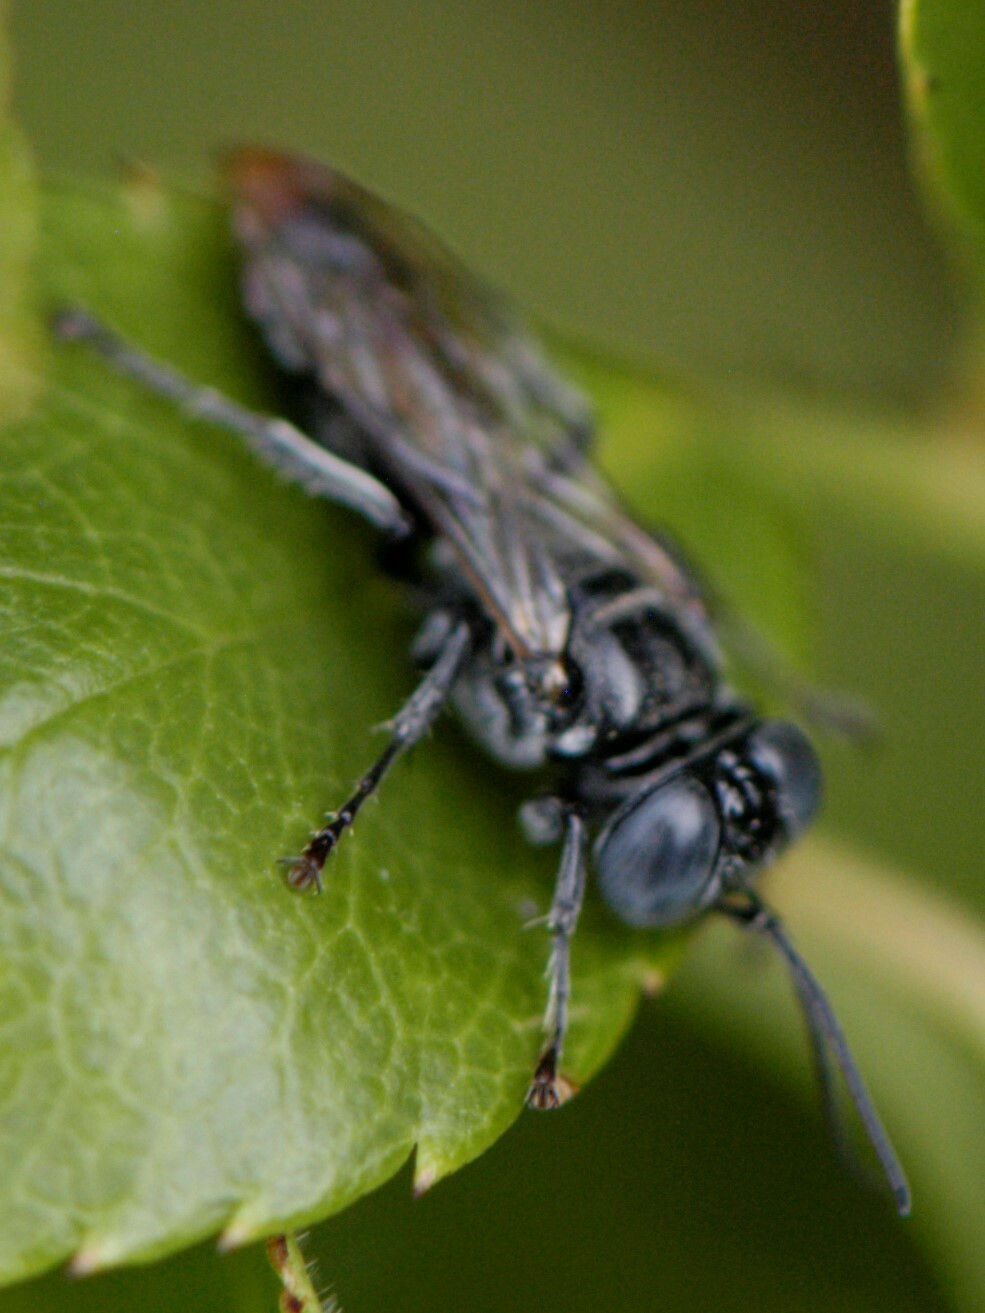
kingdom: Animalia
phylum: Arthropoda
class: Insecta
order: Hymenoptera
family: Crabronidae
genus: Tachysphex
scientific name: Tachysphex
